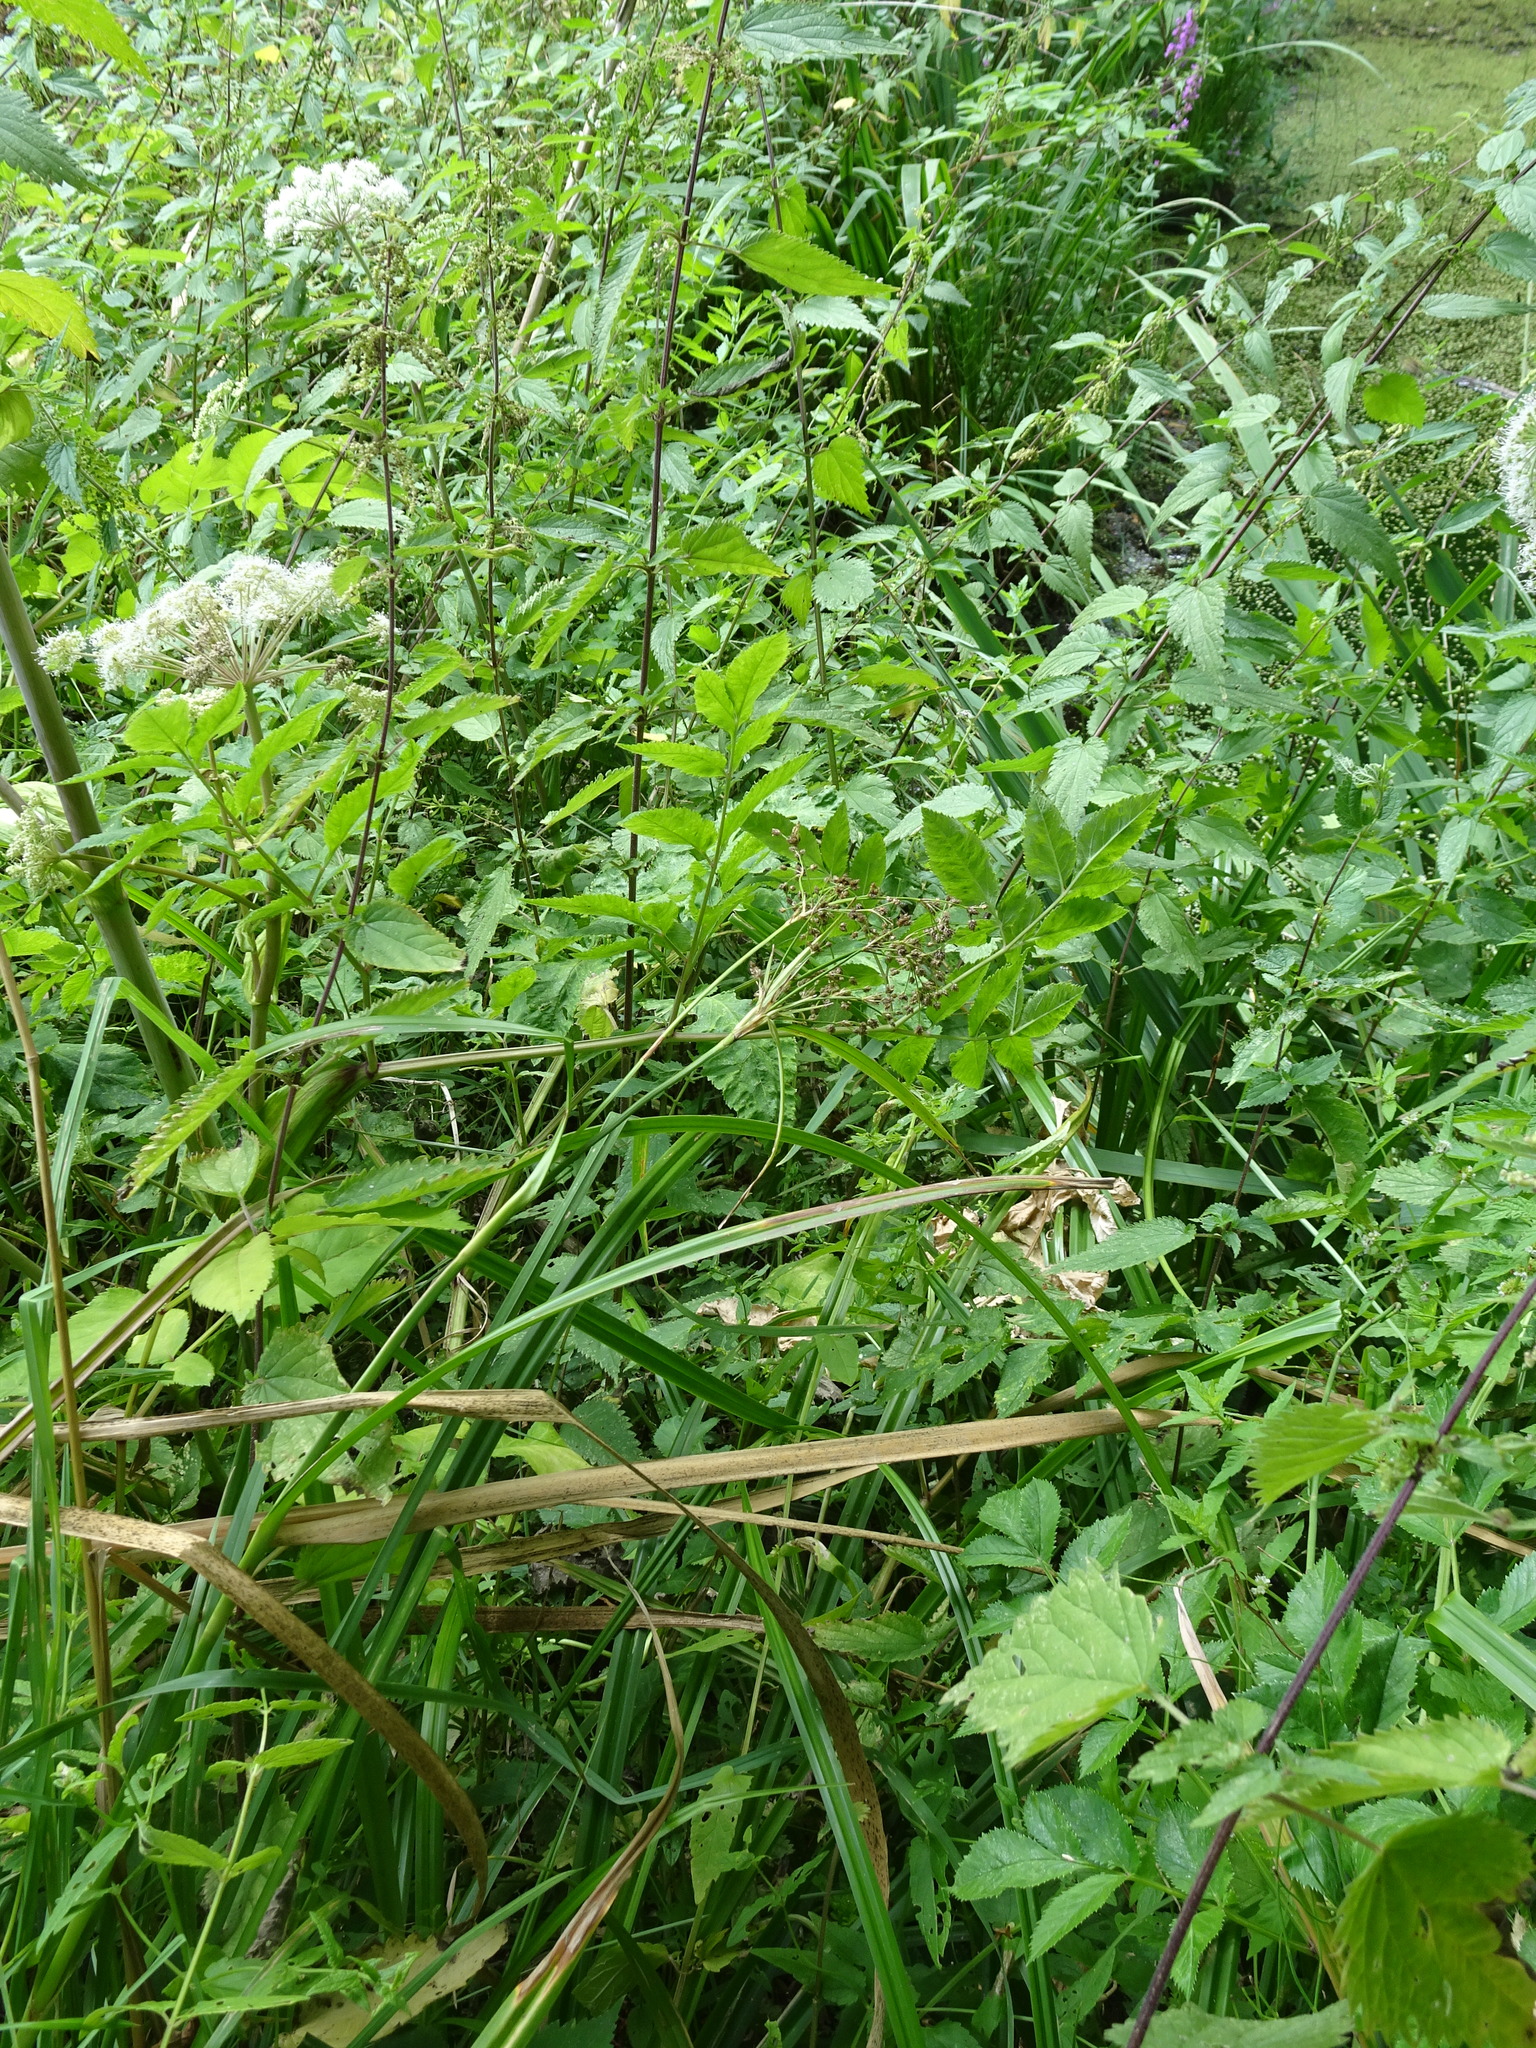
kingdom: Plantae
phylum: Tracheophyta
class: Liliopsida
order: Poales
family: Cyperaceae
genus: Scirpus
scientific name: Scirpus sylvaticus
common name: Wood club-rush
